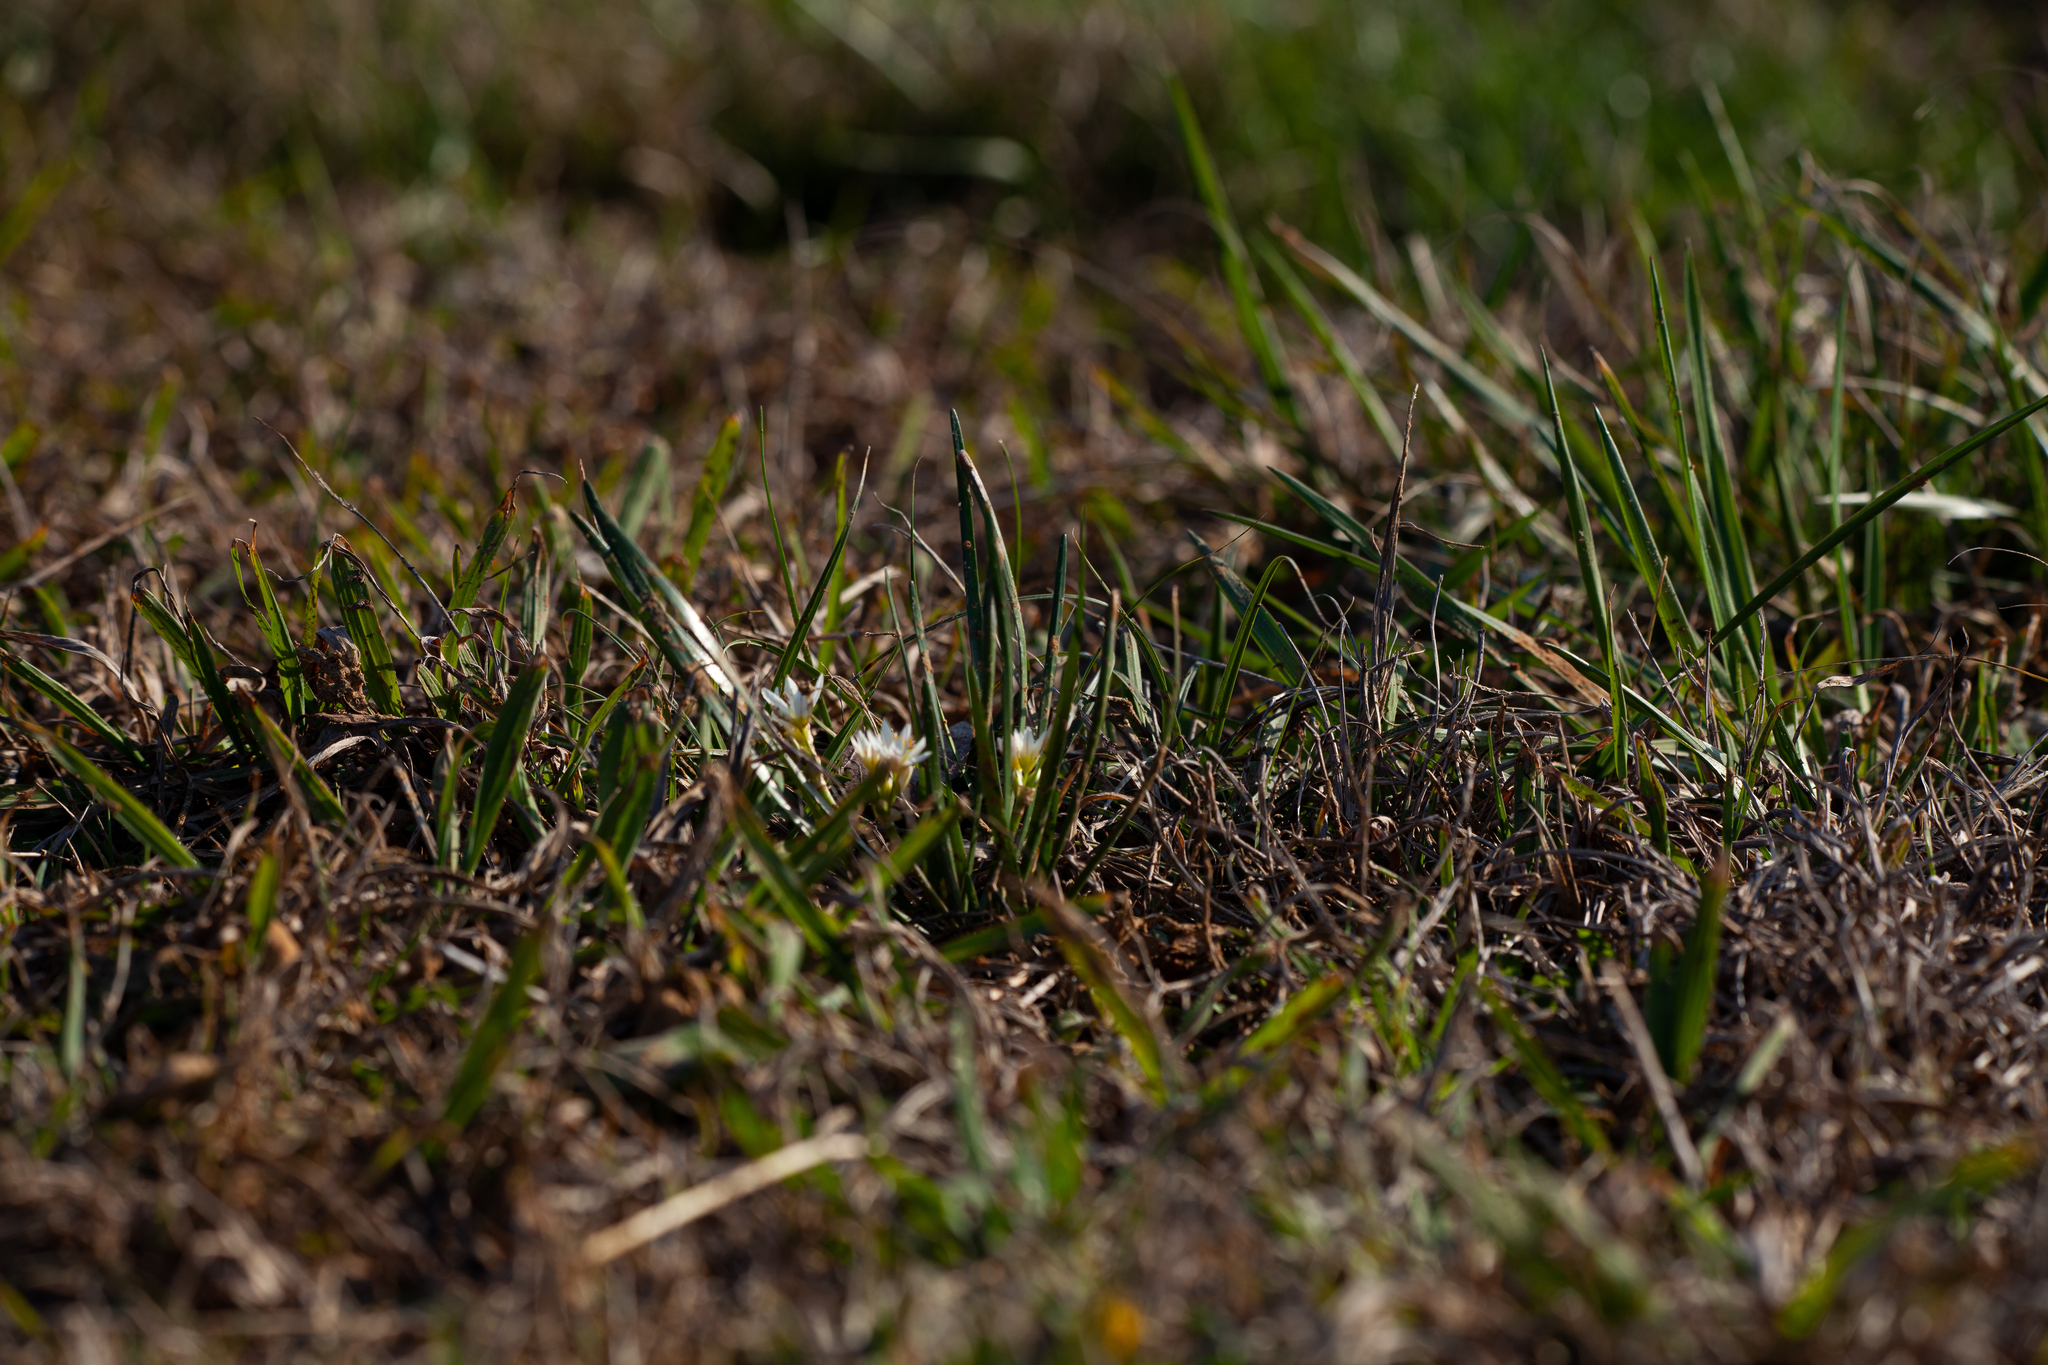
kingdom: Plantae
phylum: Tracheophyta
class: Liliopsida
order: Asparagales
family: Amaryllidaceae
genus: Nothoscordum
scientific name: Nothoscordum bivalve
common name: Crow-poison
